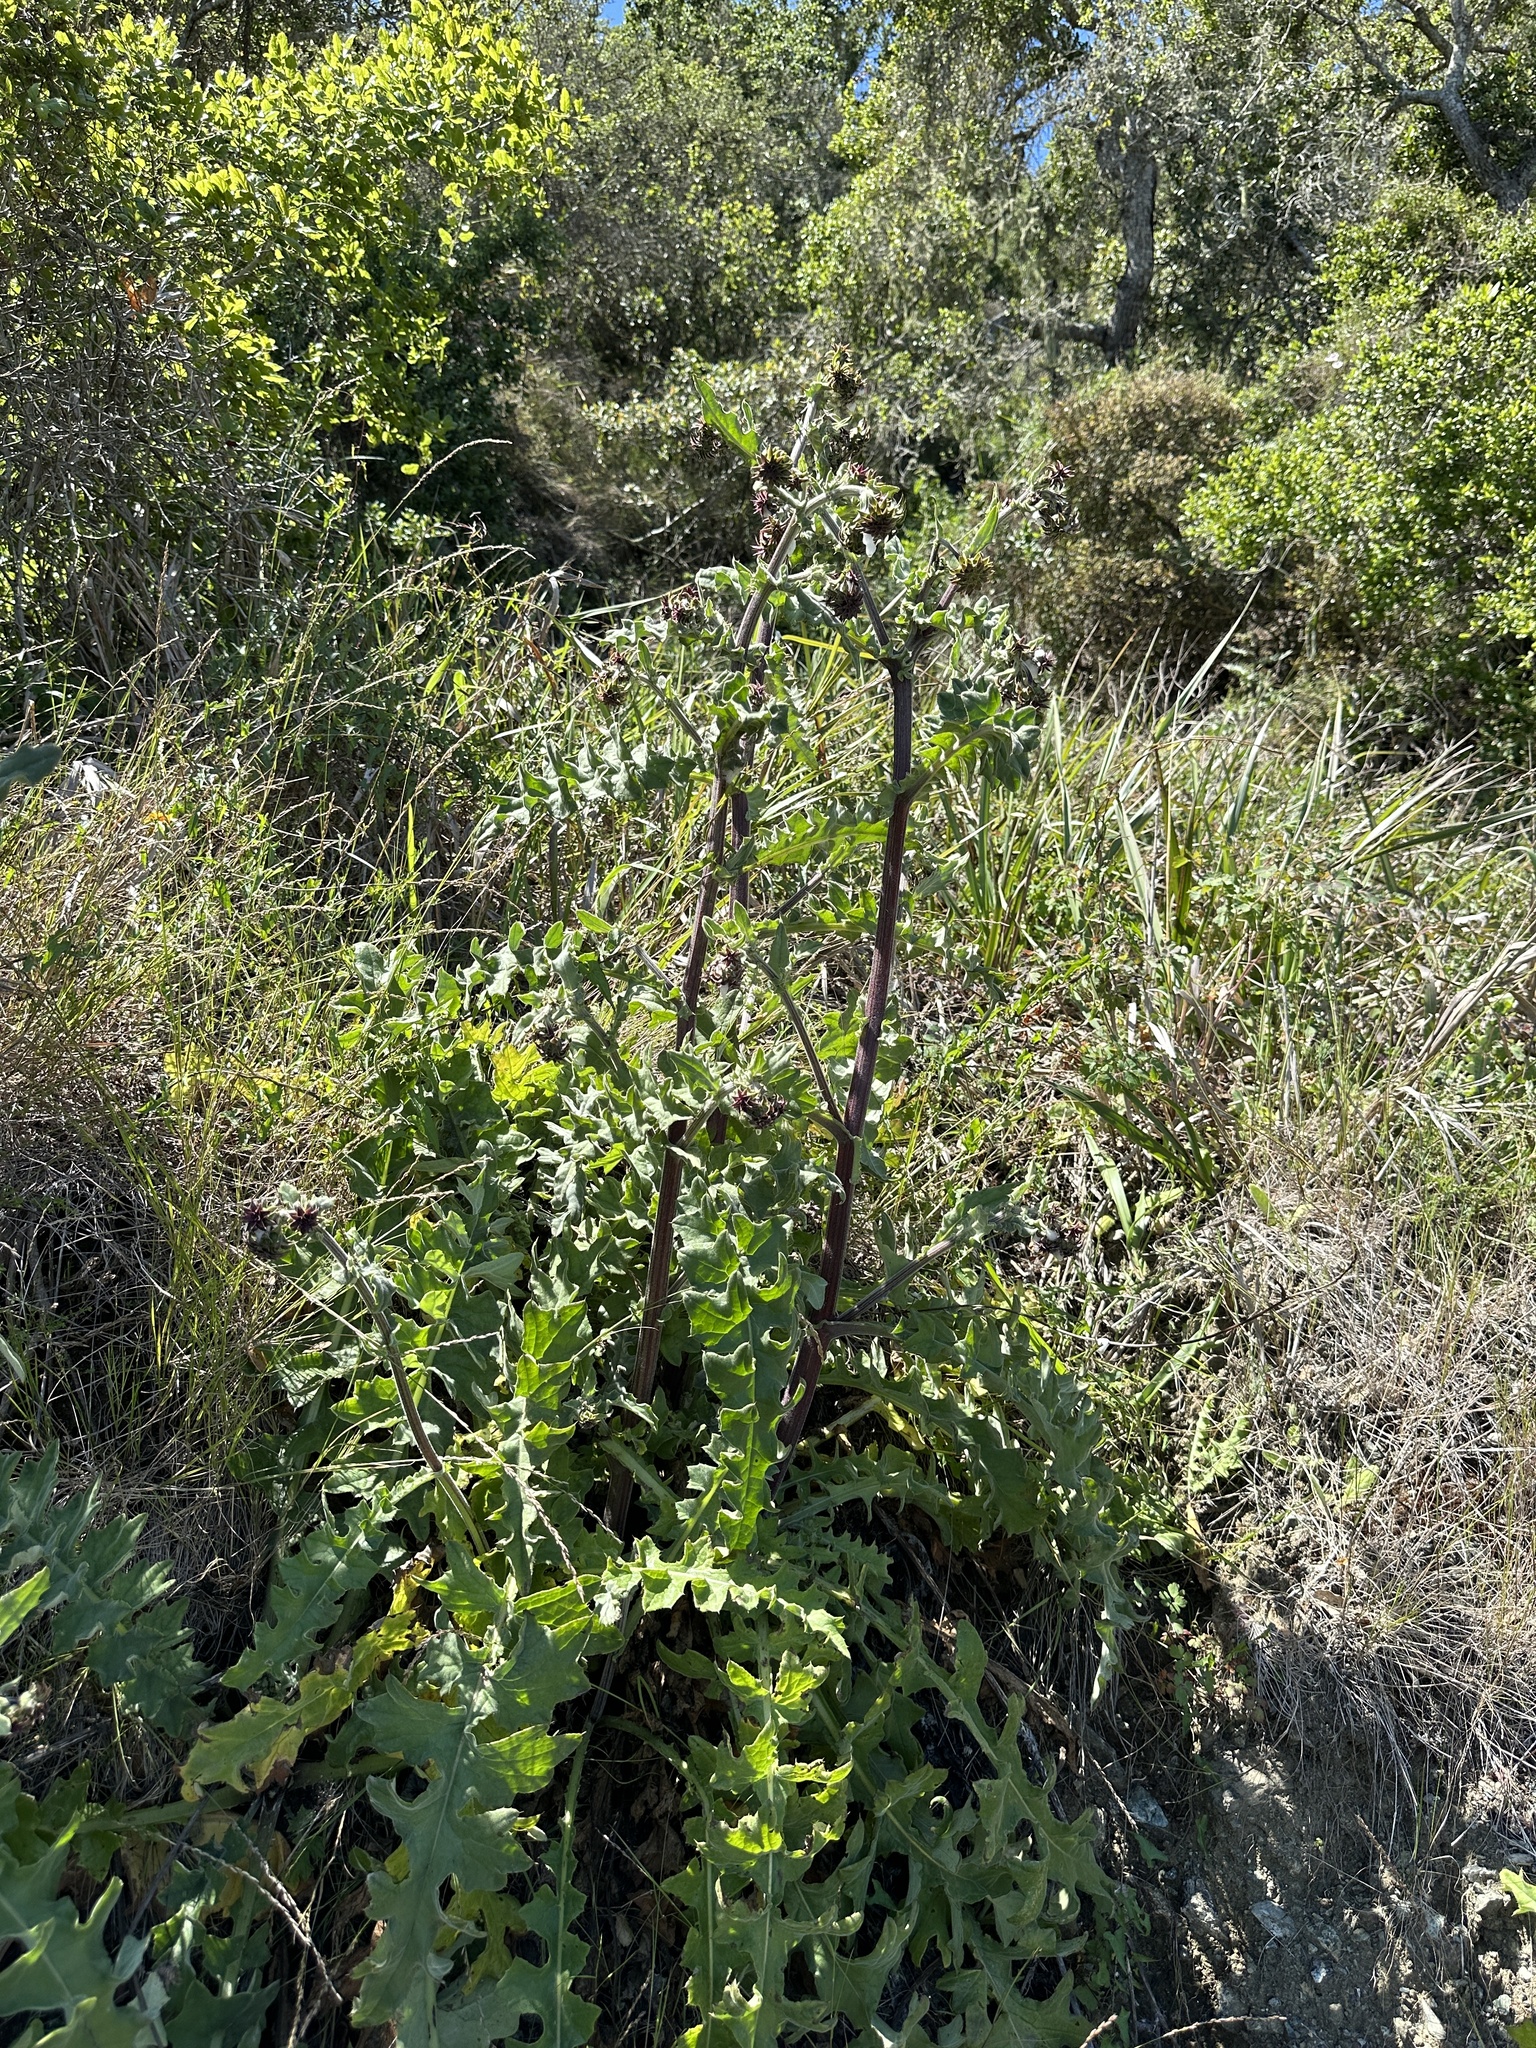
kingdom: Plantae
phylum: Tracheophyta
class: Magnoliopsida
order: Asterales
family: Asteraceae
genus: Cirsium
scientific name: Cirsium fontinale
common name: Fountain thistle
